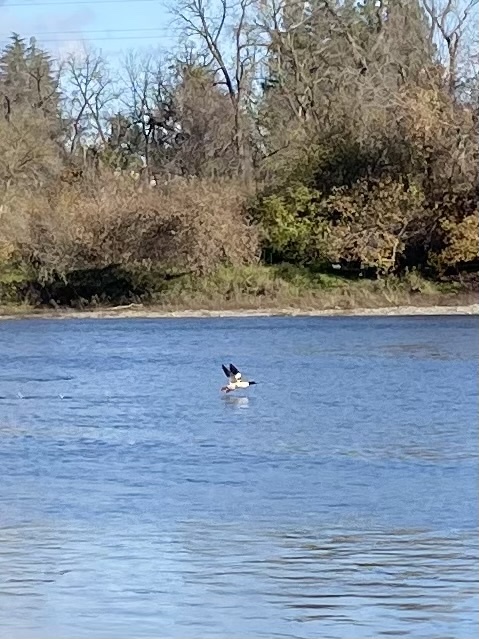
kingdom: Animalia
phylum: Chordata
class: Aves
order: Anseriformes
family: Anatidae
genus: Mergus
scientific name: Mergus merganser
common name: Common merganser
